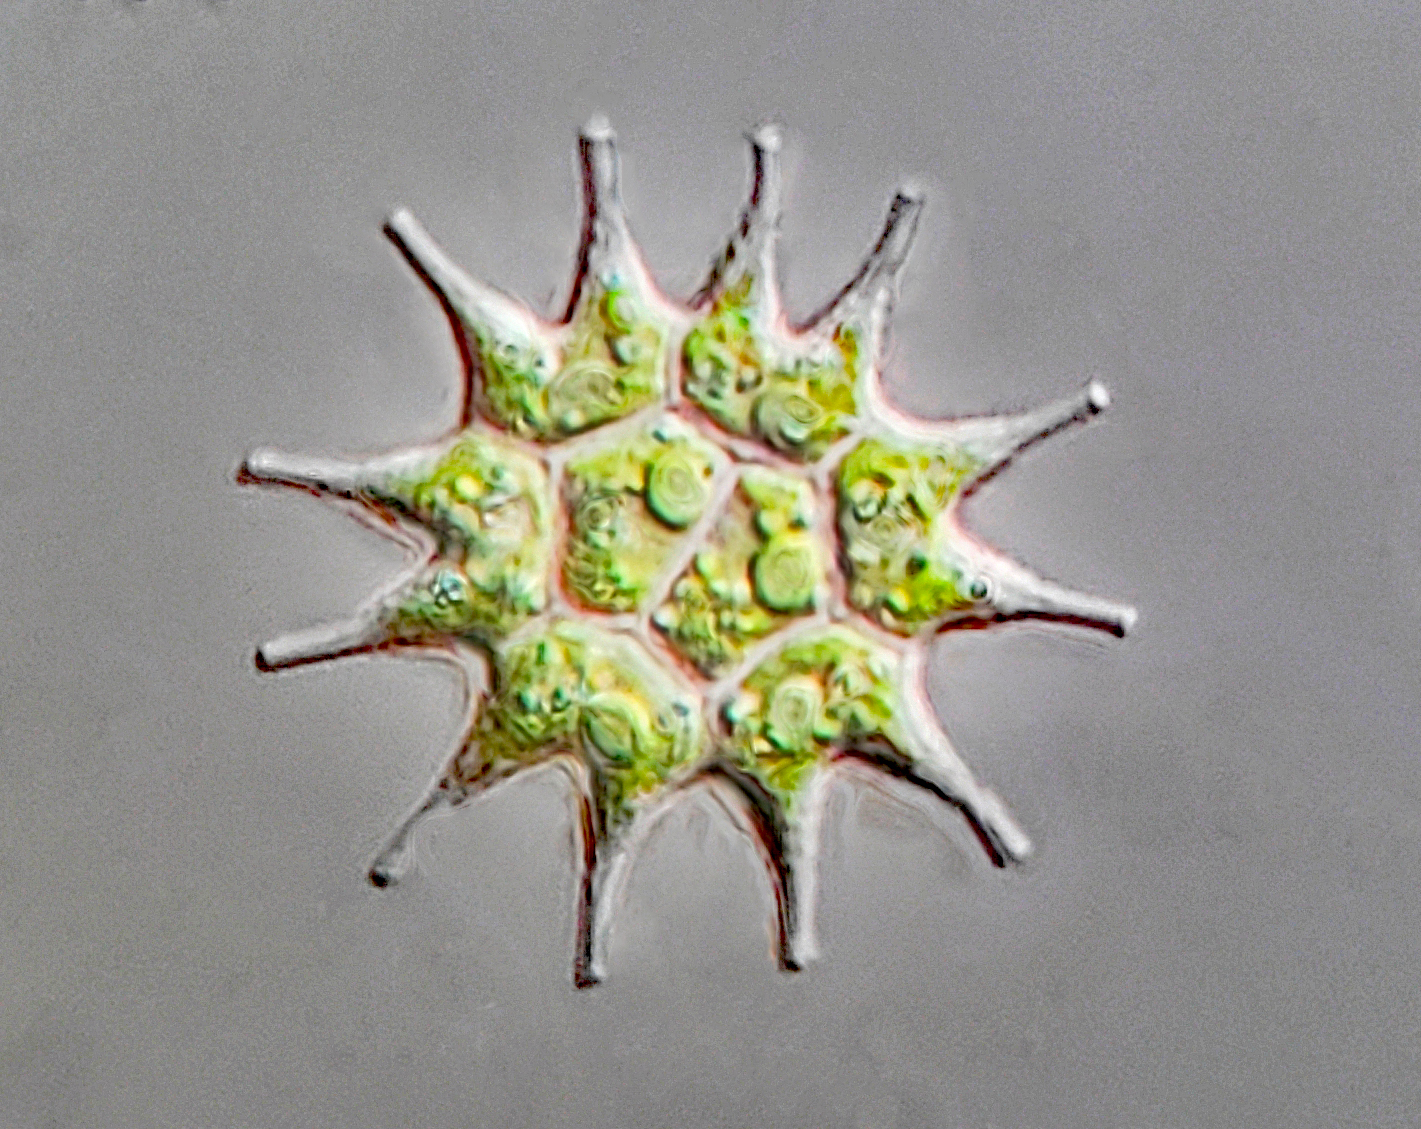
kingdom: Plantae
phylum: Chlorophyta
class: Chlorophyceae
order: Sphaeropleales
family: Hydrodictyaceae
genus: Pseudopediastrum
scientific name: Pseudopediastrum boryanum
